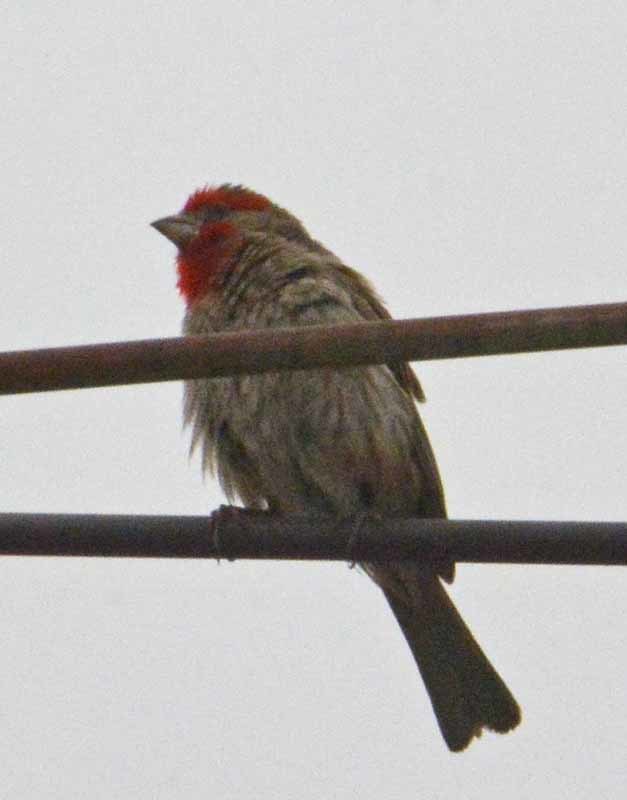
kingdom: Animalia
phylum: Chordata
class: Aves
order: Passeriformes
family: Fringillidae
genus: Haemorhous
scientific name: Haemorhous mexicanus
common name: House finch
